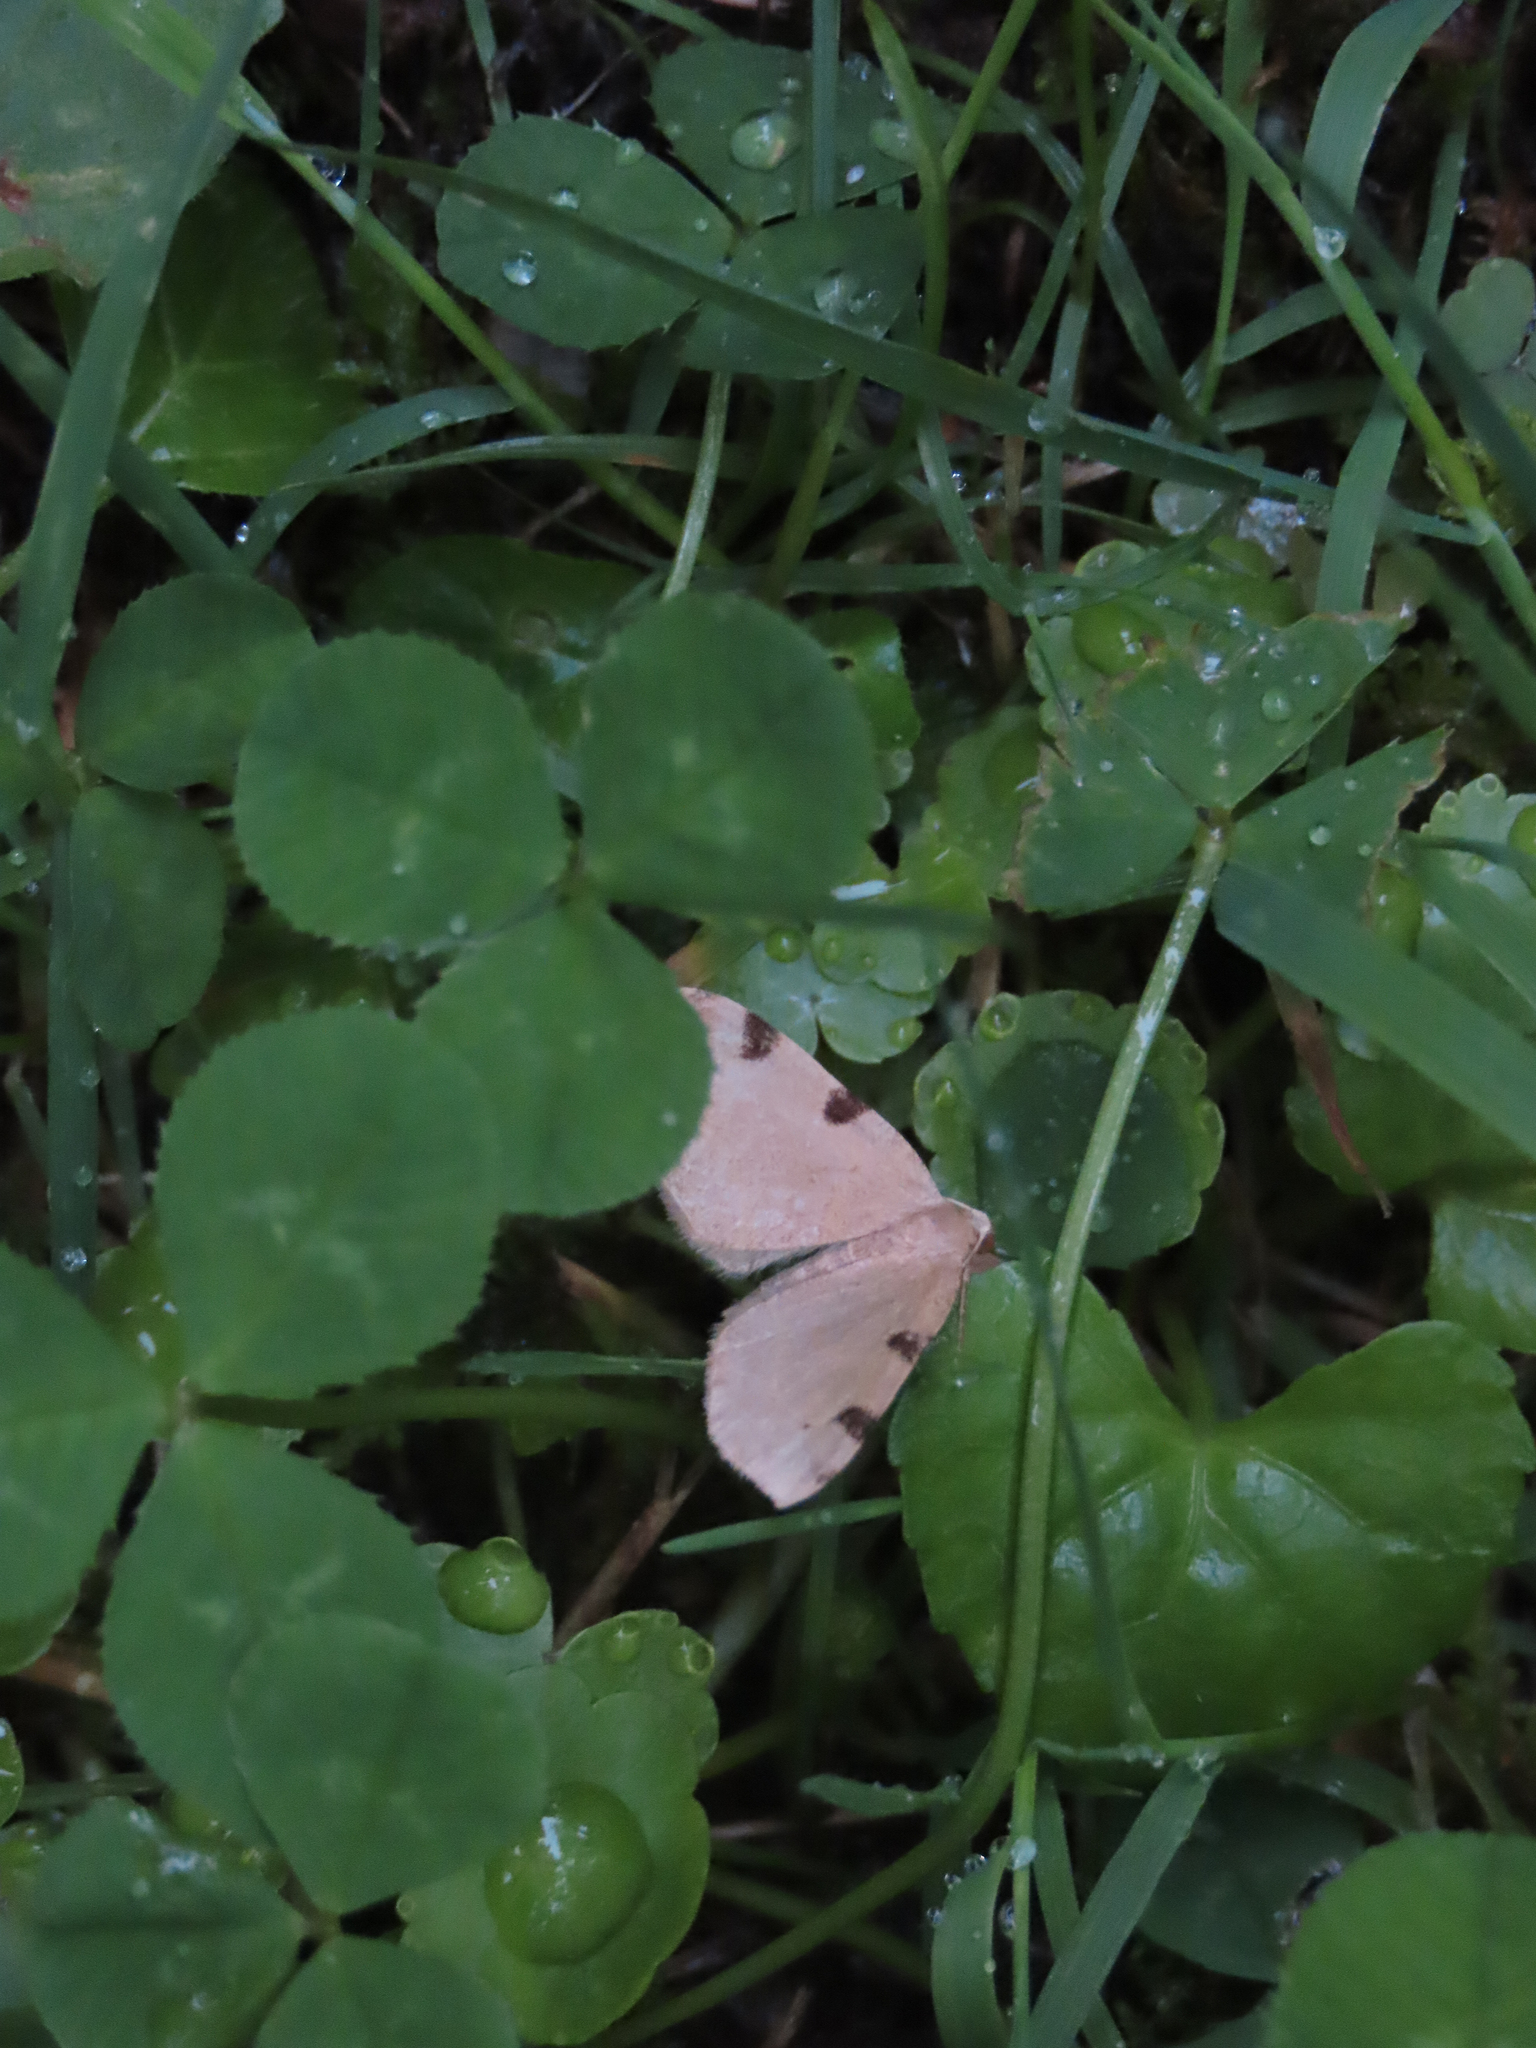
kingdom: Animalia
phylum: Arthropoda
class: Insecta
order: Lepidoptera
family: Geometridae
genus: Heterophleps
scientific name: Heterophleps triguttaria
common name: Three-spotted fillip
